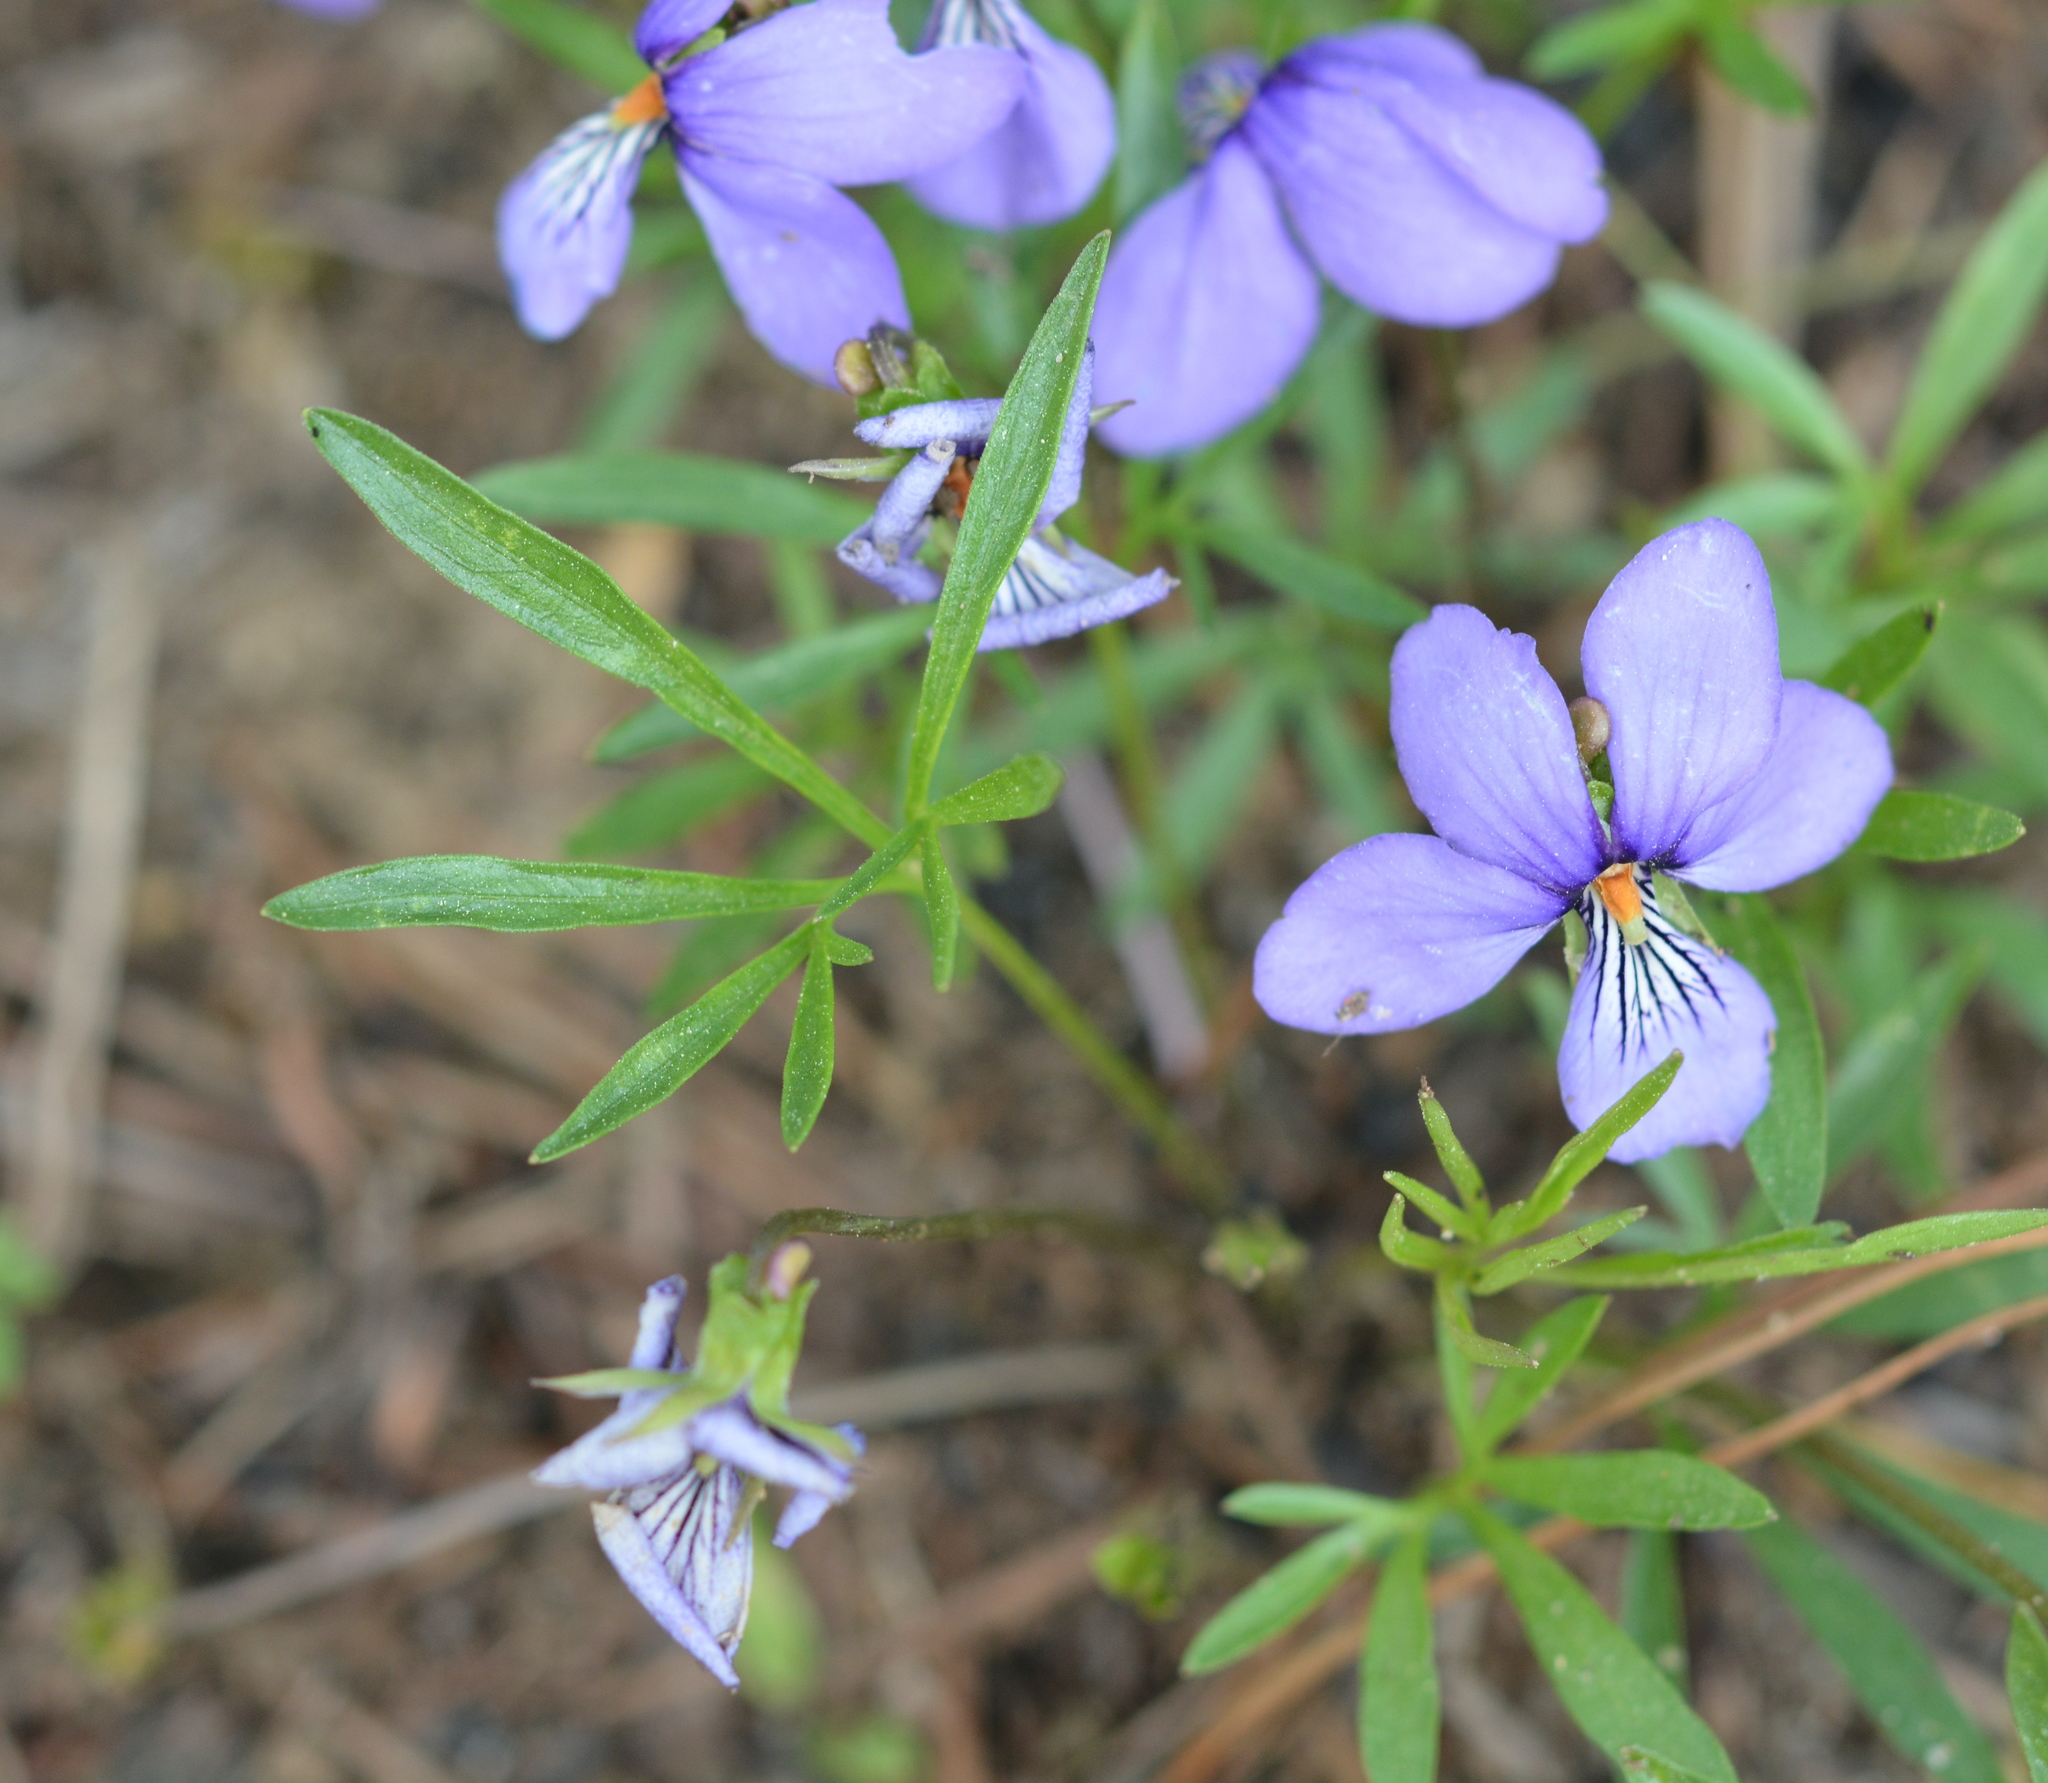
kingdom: Plantae
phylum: Tracheophyta
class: Magnoliopsida
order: Malpighiales
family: Violaceae
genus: Viola
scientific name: Viola pedata
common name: Pansy violet
